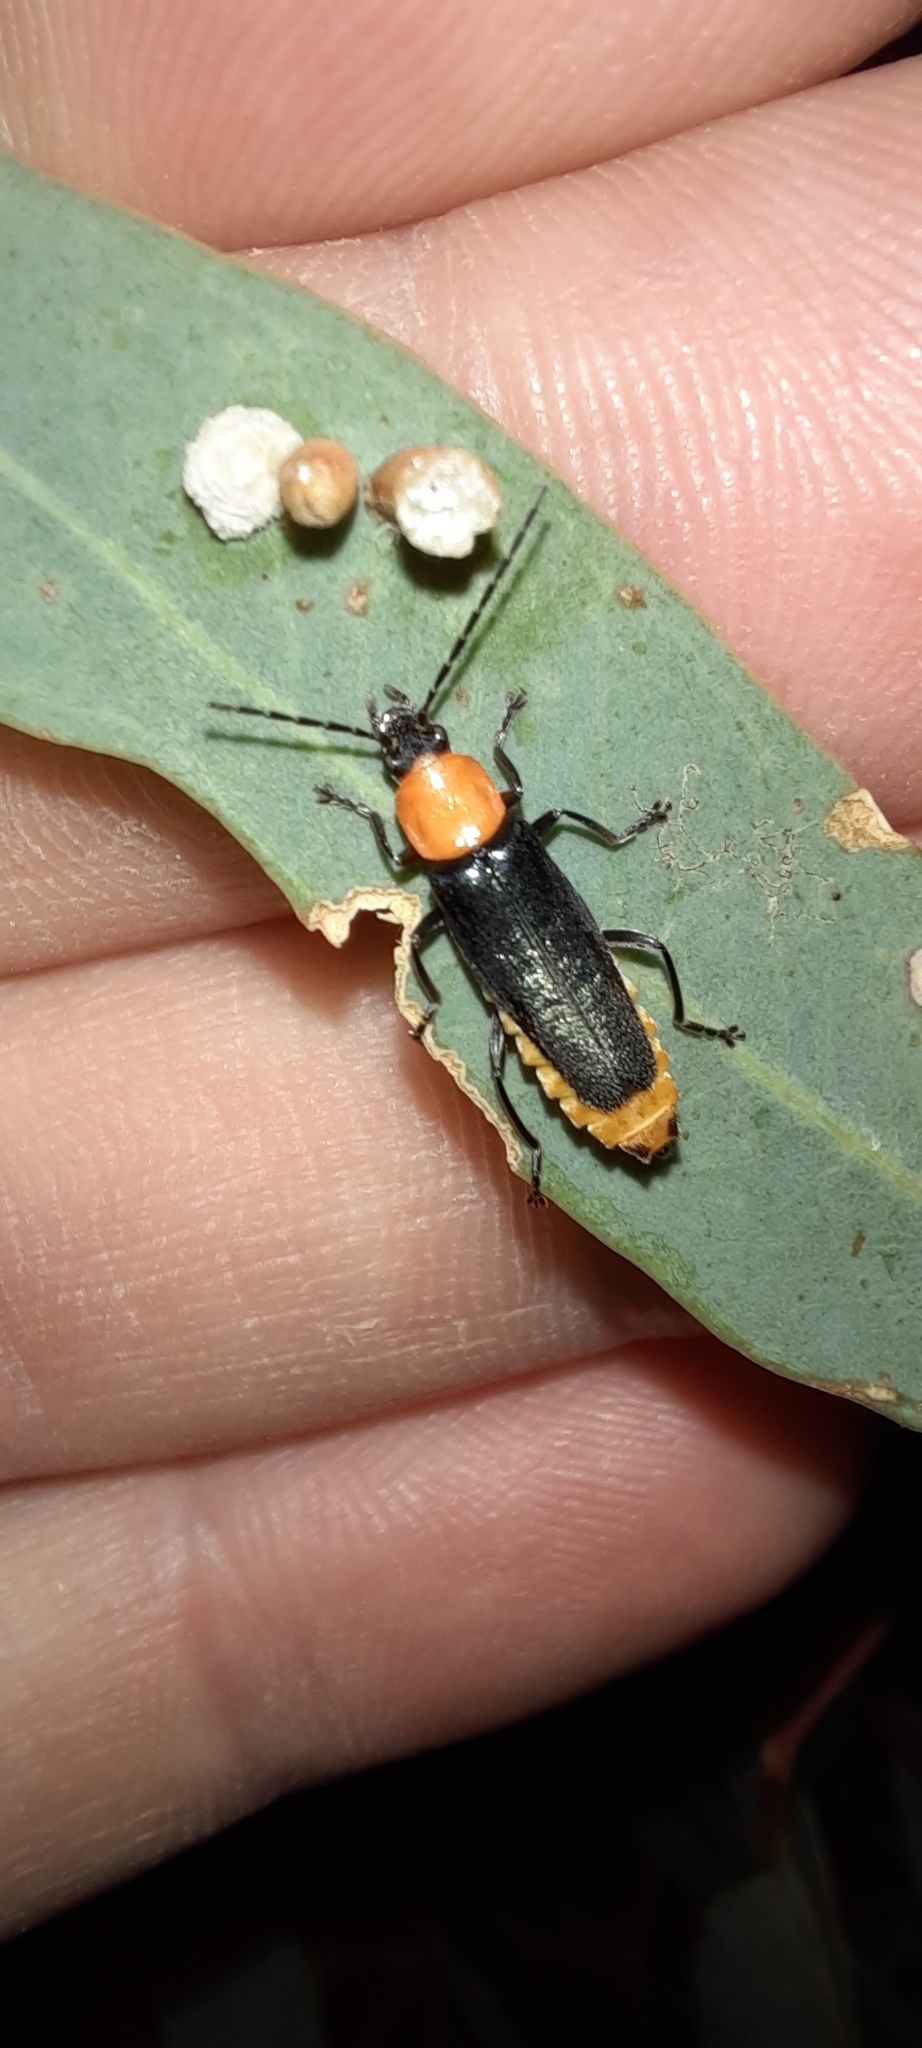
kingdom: Animalia
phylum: Arthropoda
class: Insecta
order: Coleoptera
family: Cantharidae
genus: Chauliognathus
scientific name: Chauliognathus
